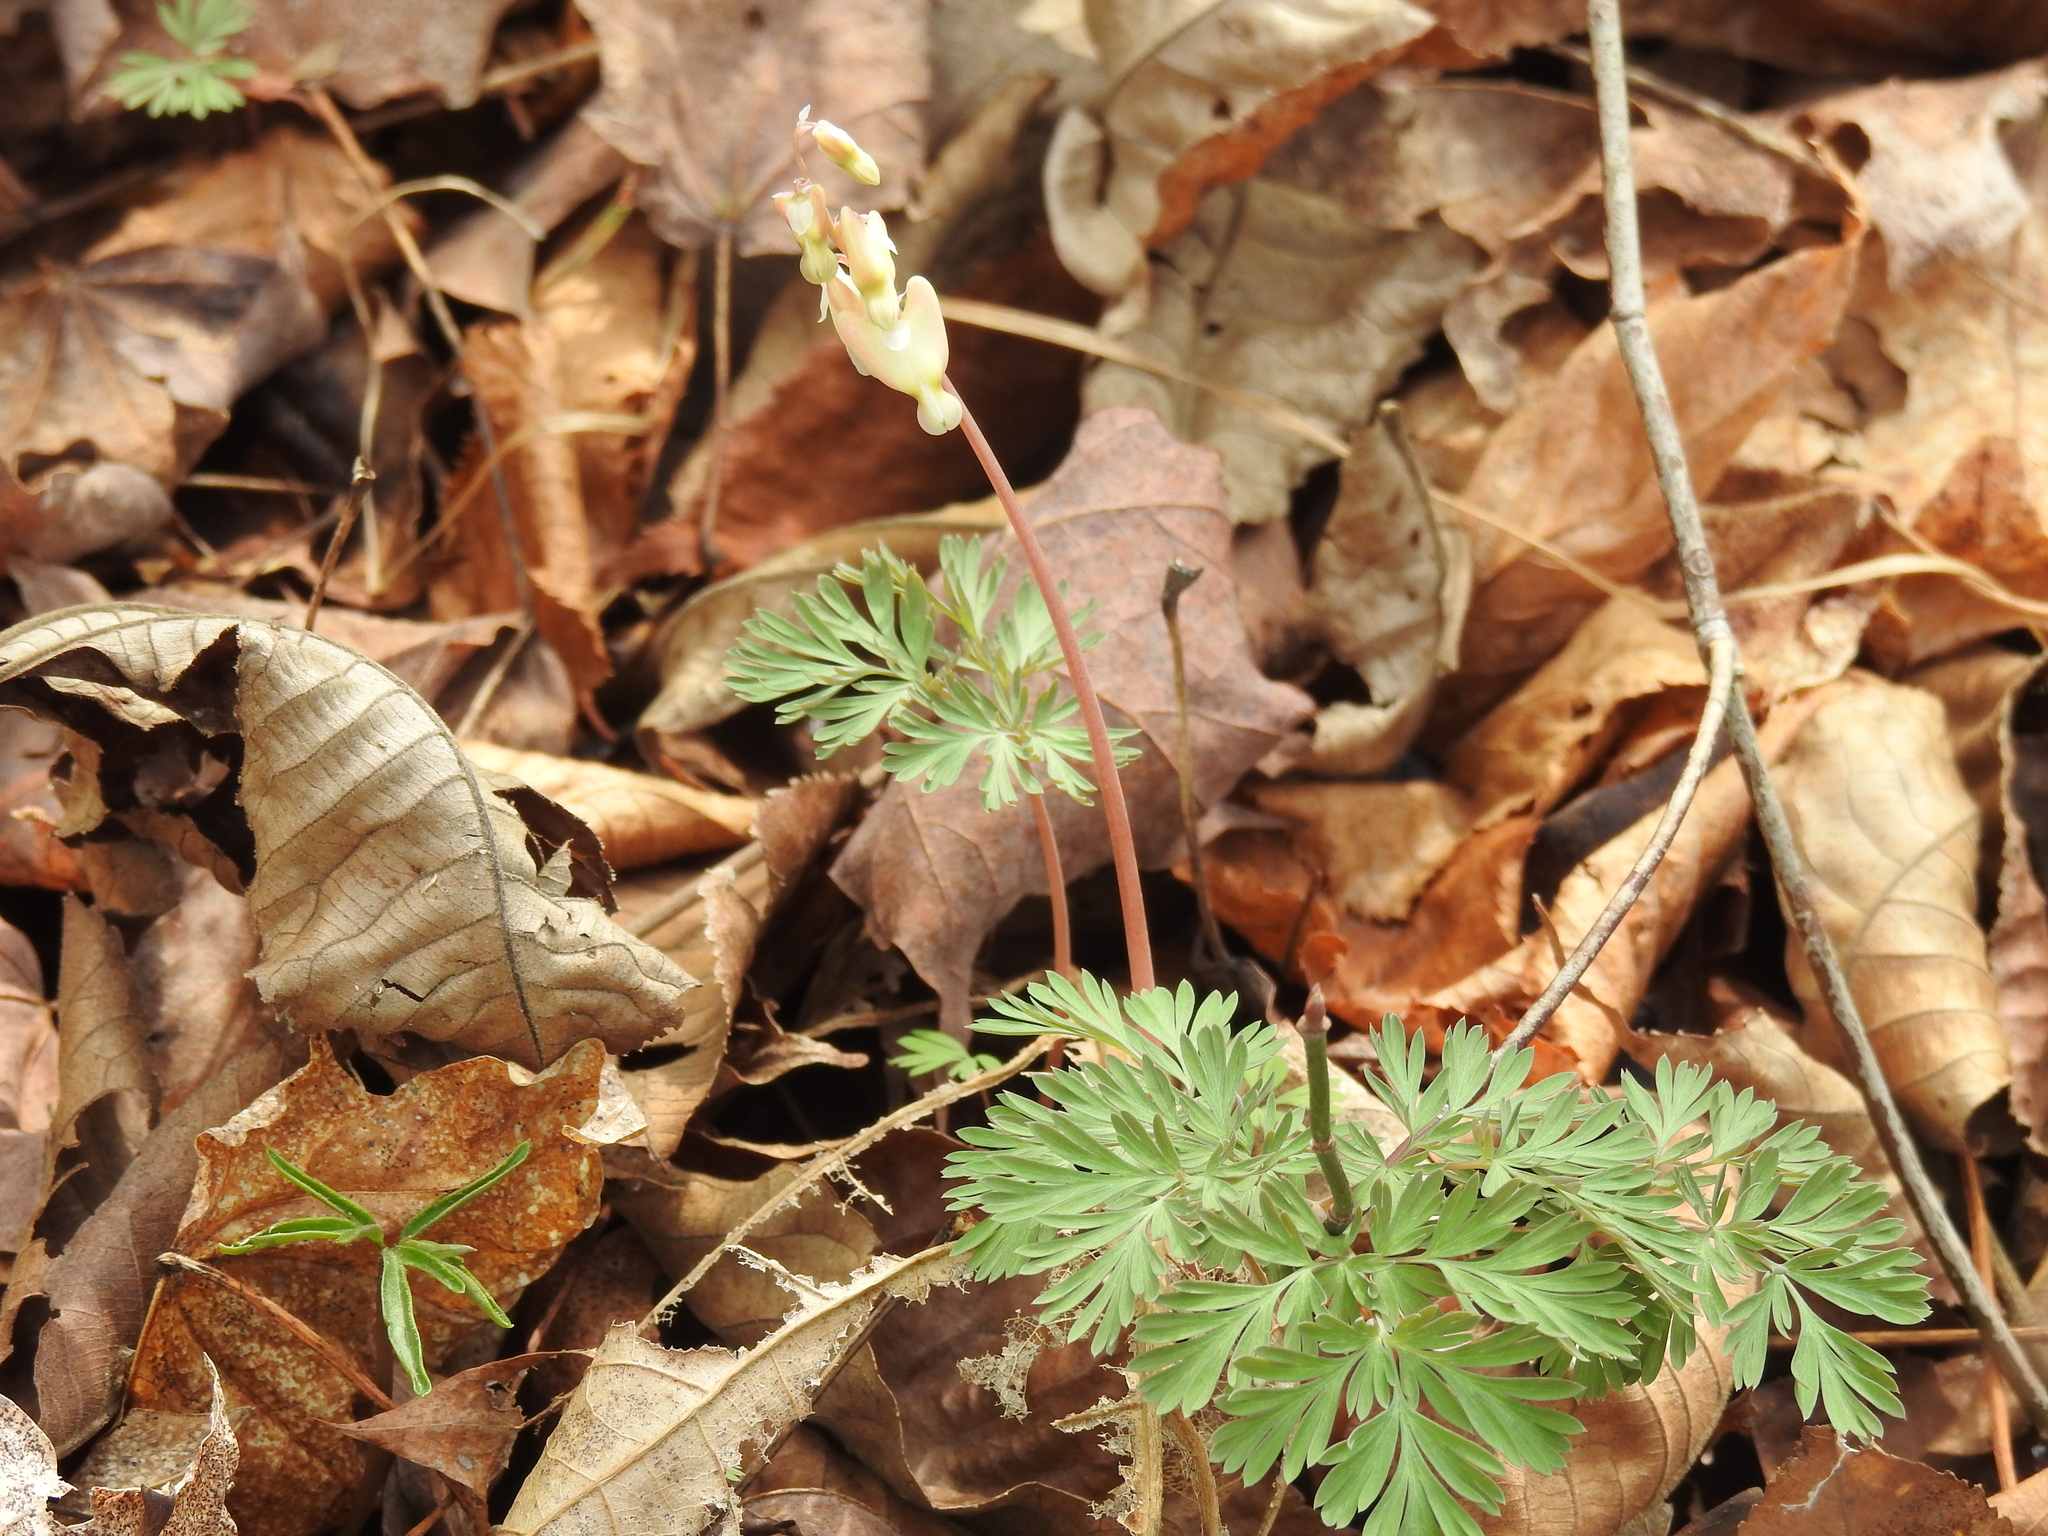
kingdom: Plantae
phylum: Tracheophyta
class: Magnoliopsida
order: Ranunculales
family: Papaveraceae
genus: Dicentra
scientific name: Dicentra cucullaria
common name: Dutchman's breeches
